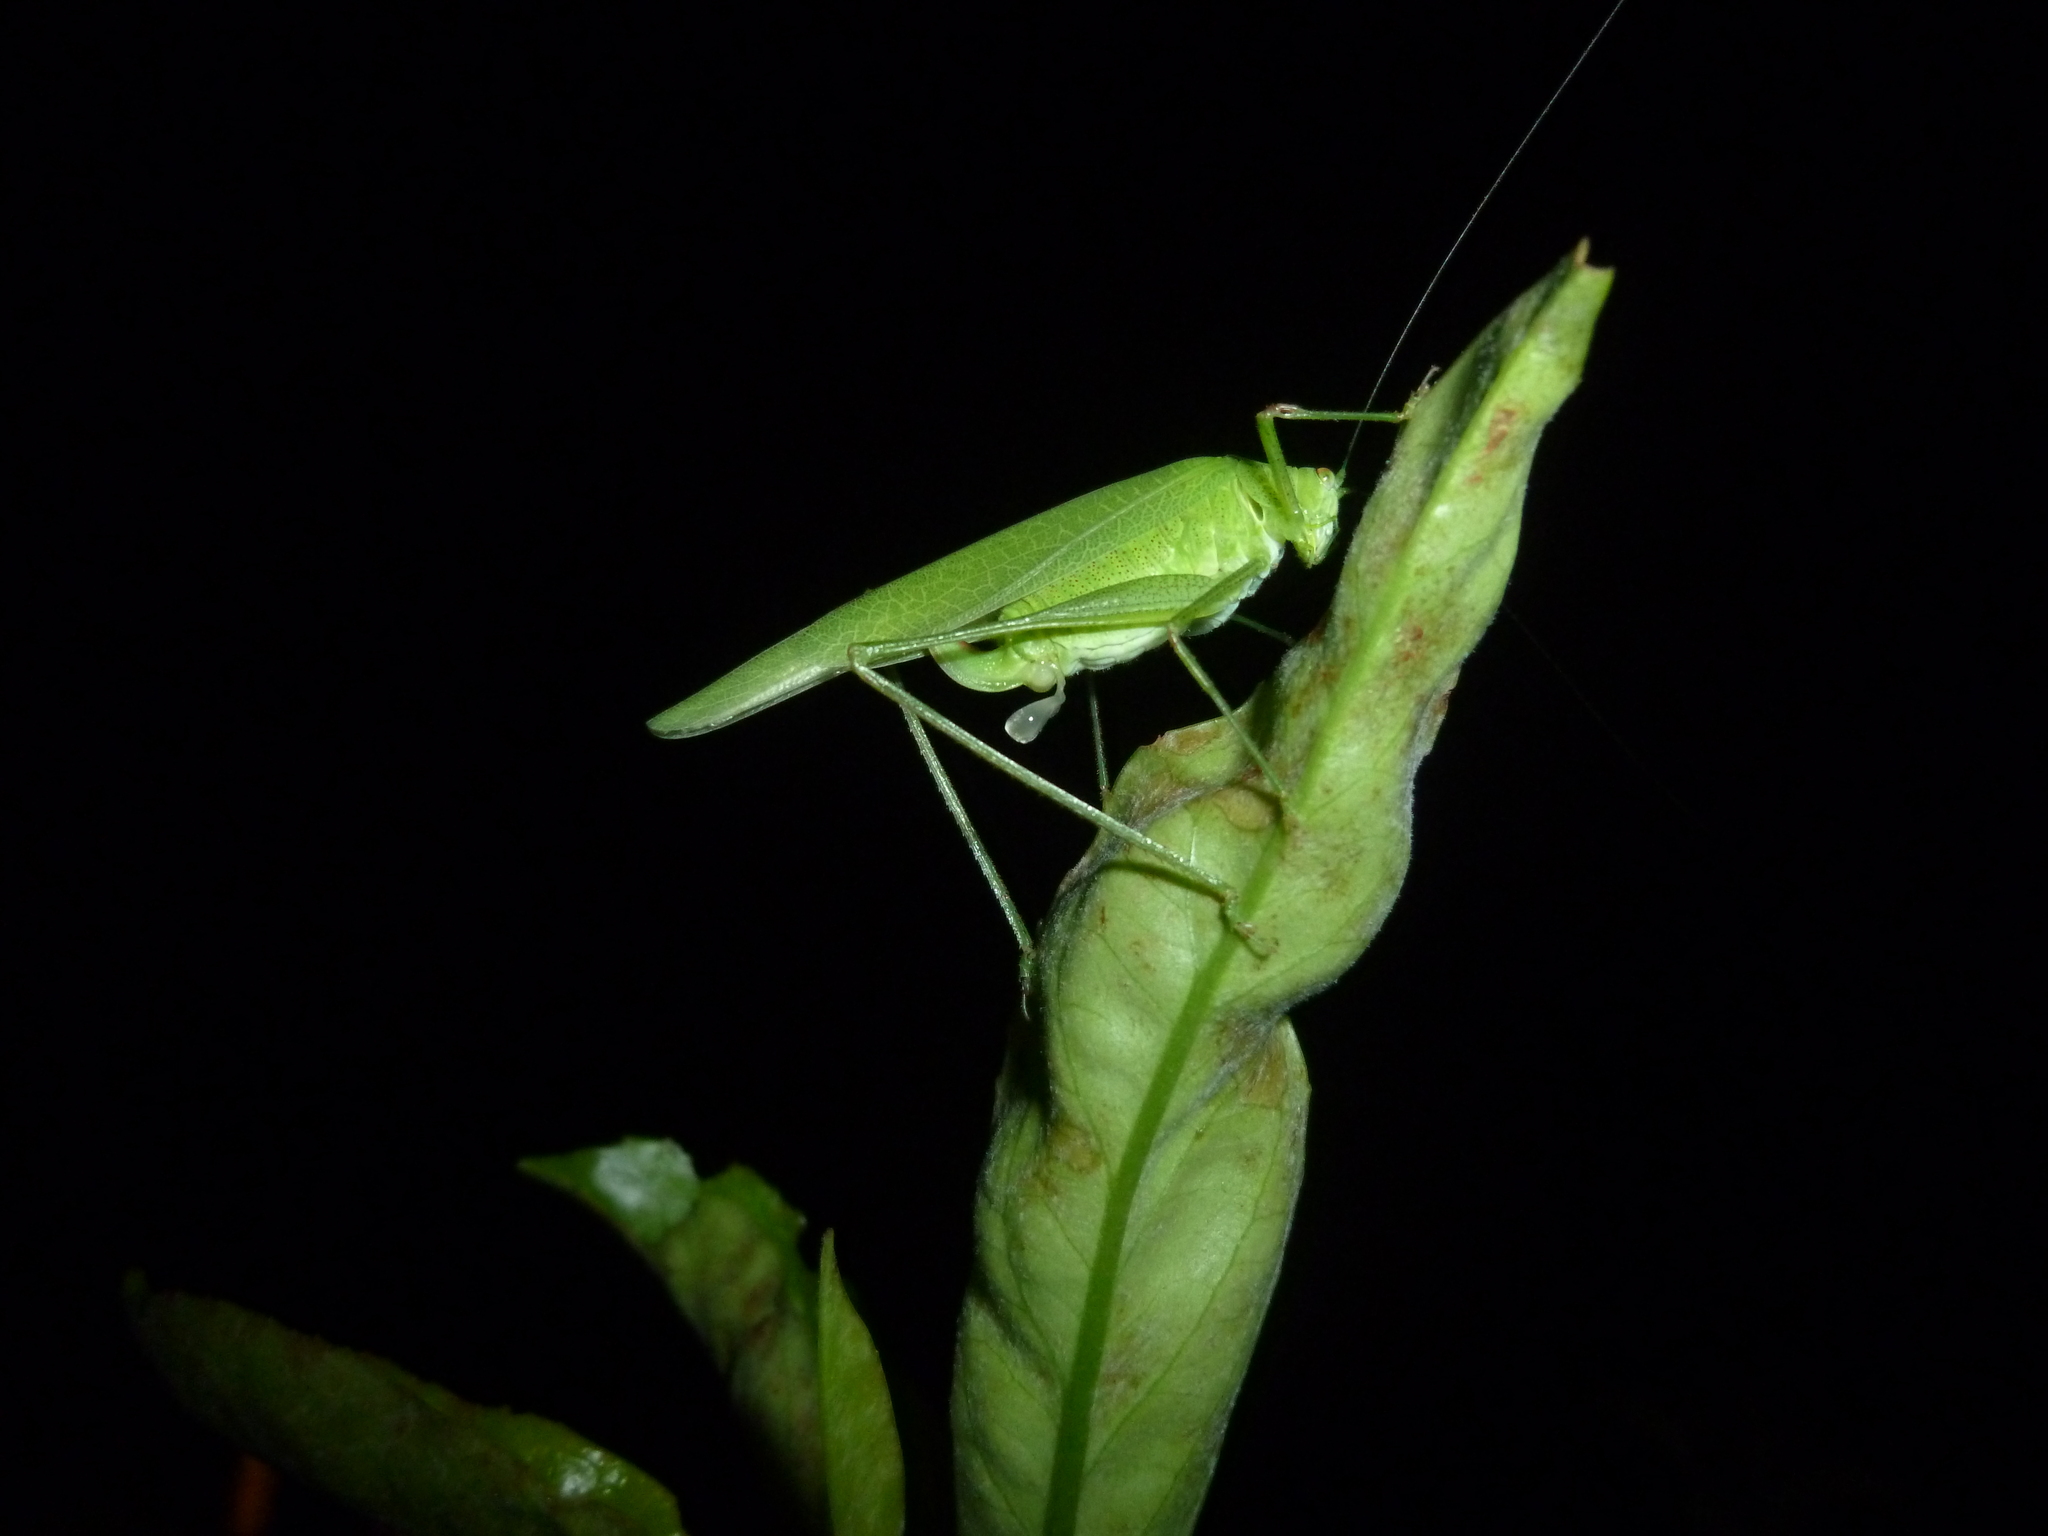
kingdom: Animalia
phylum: Arthropoda
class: Insecta
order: Orthoptera
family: Tettigoniidae
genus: Phaneroptera
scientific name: Phaneroptera nana
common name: Southern sickle bush-cricket
